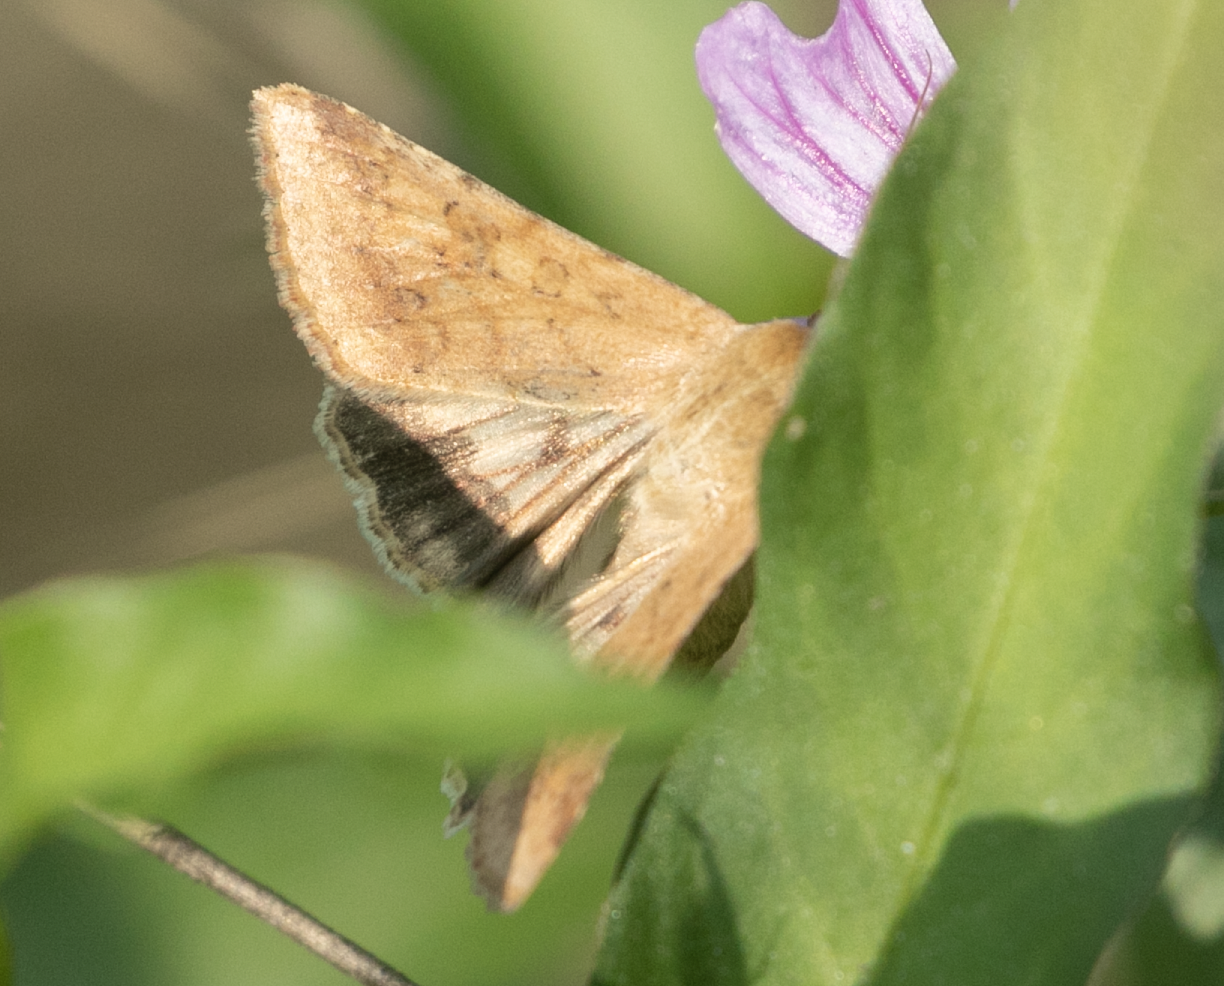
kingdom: Animalia
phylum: Arthropoda
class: Insecta
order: Lepidoptera
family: Noctuidae
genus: Helicoverpa
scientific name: Helicoverpa armigera
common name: Cotton bollworm
